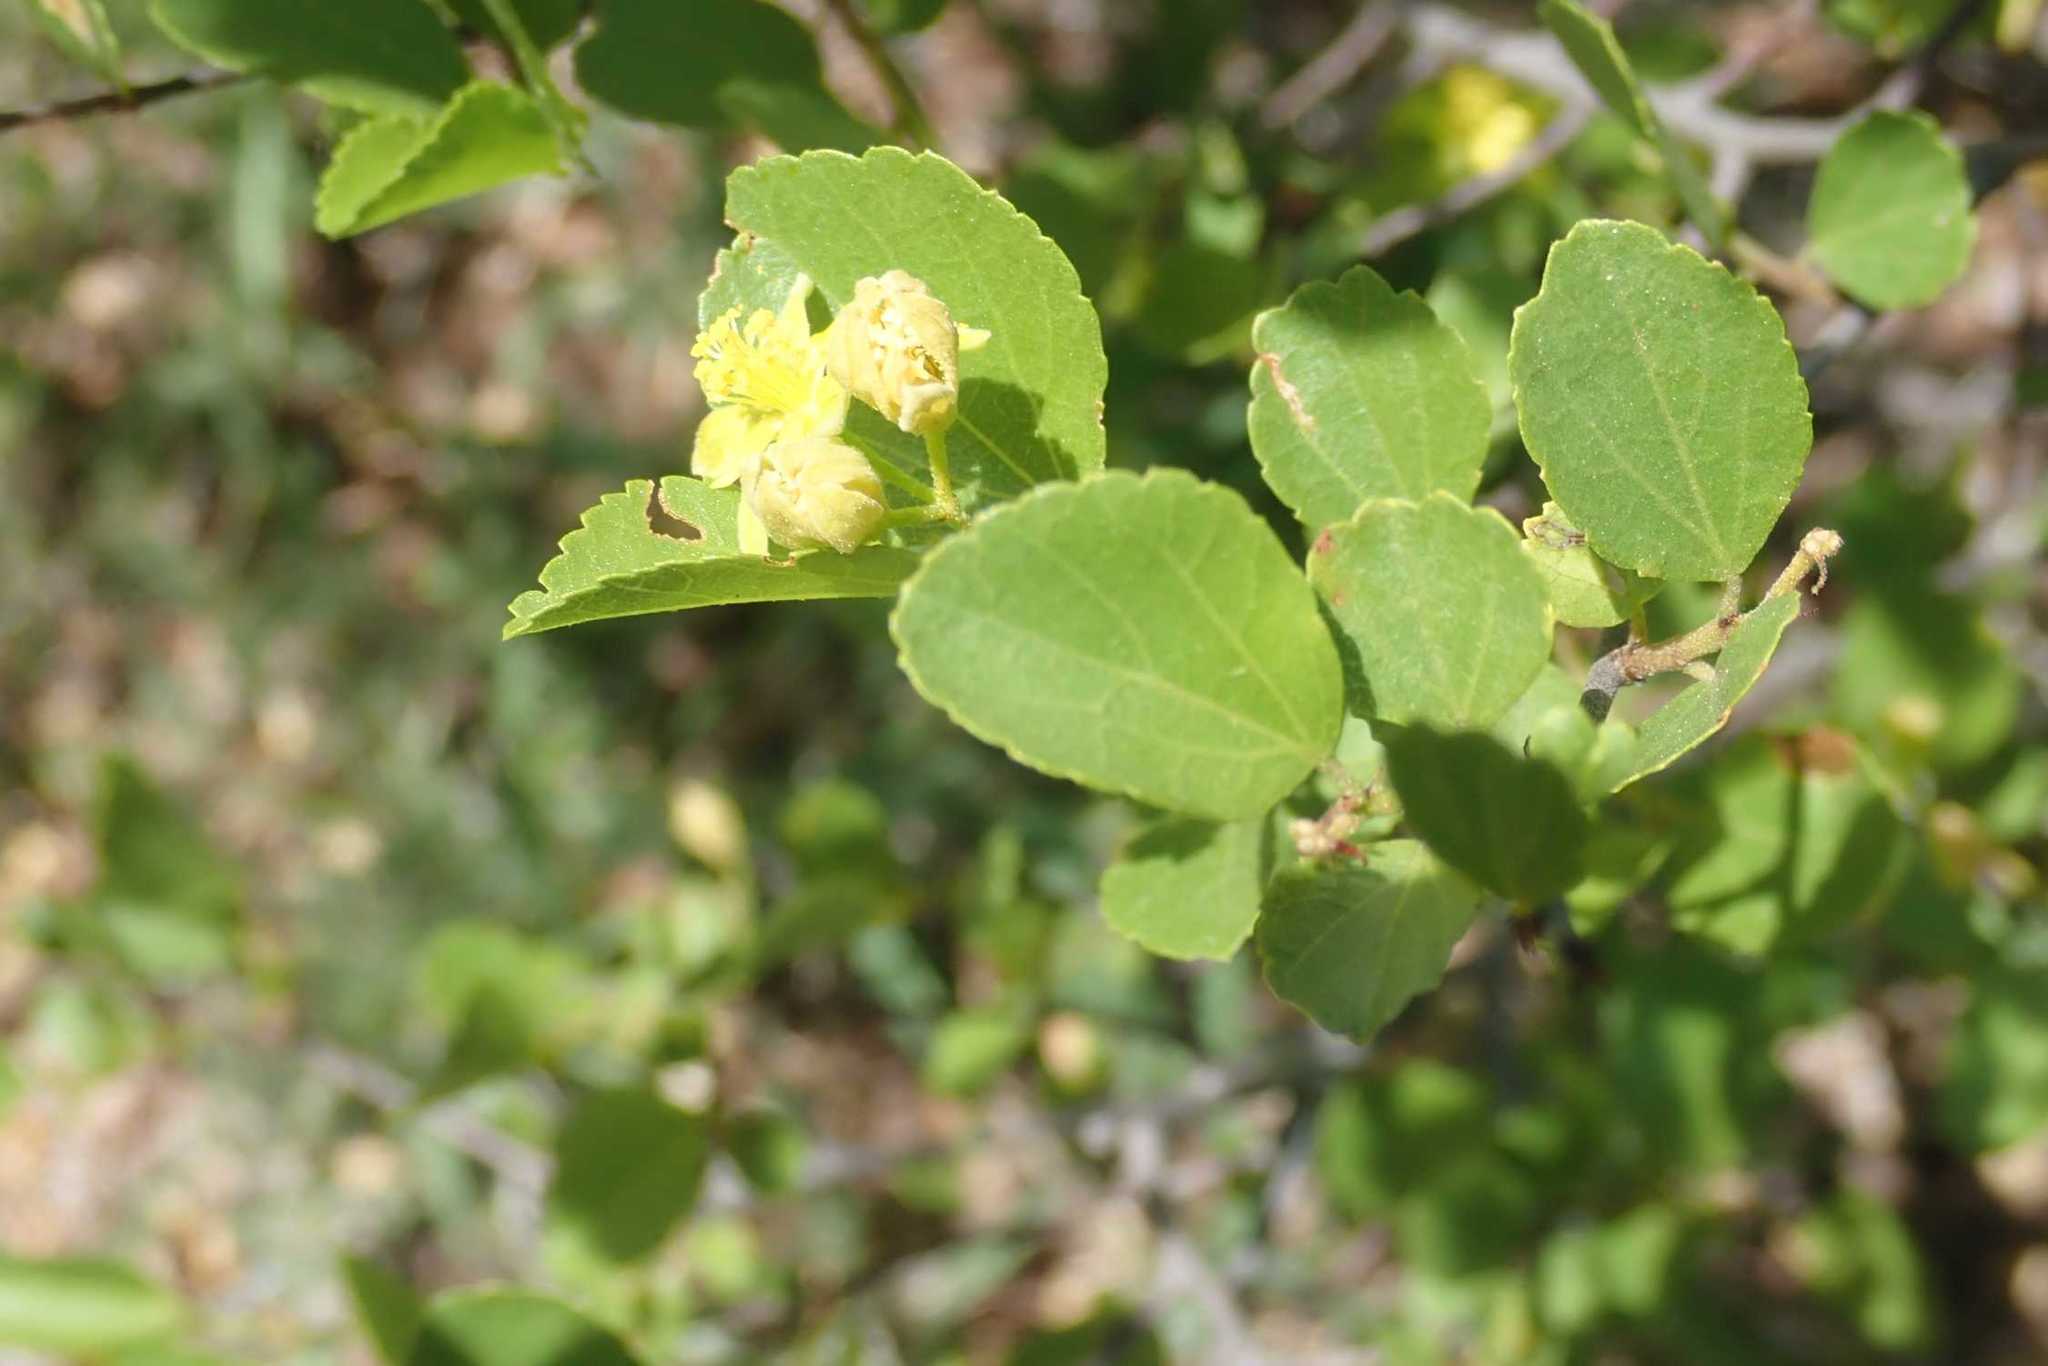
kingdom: Plantae
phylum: Tracheophyta
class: Magnoliopsida
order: Malvales
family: Malvaceae
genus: Grewia
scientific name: Grewia vernicosa
